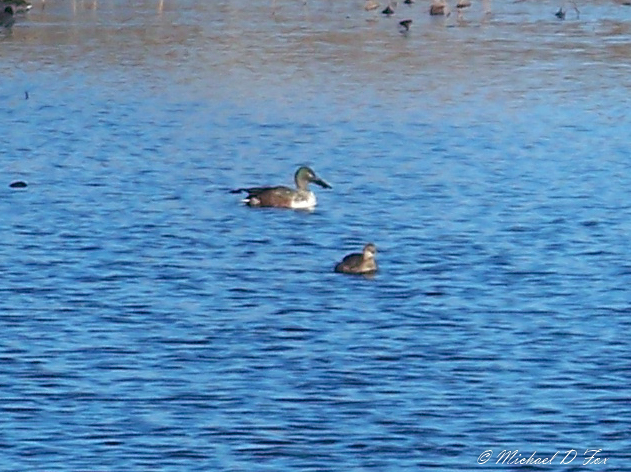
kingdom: Animalia
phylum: Chordata
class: Aves
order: Anseriformes
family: Anatidae
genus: Spatula
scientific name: Spatula clypeata
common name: Northern shoveler
